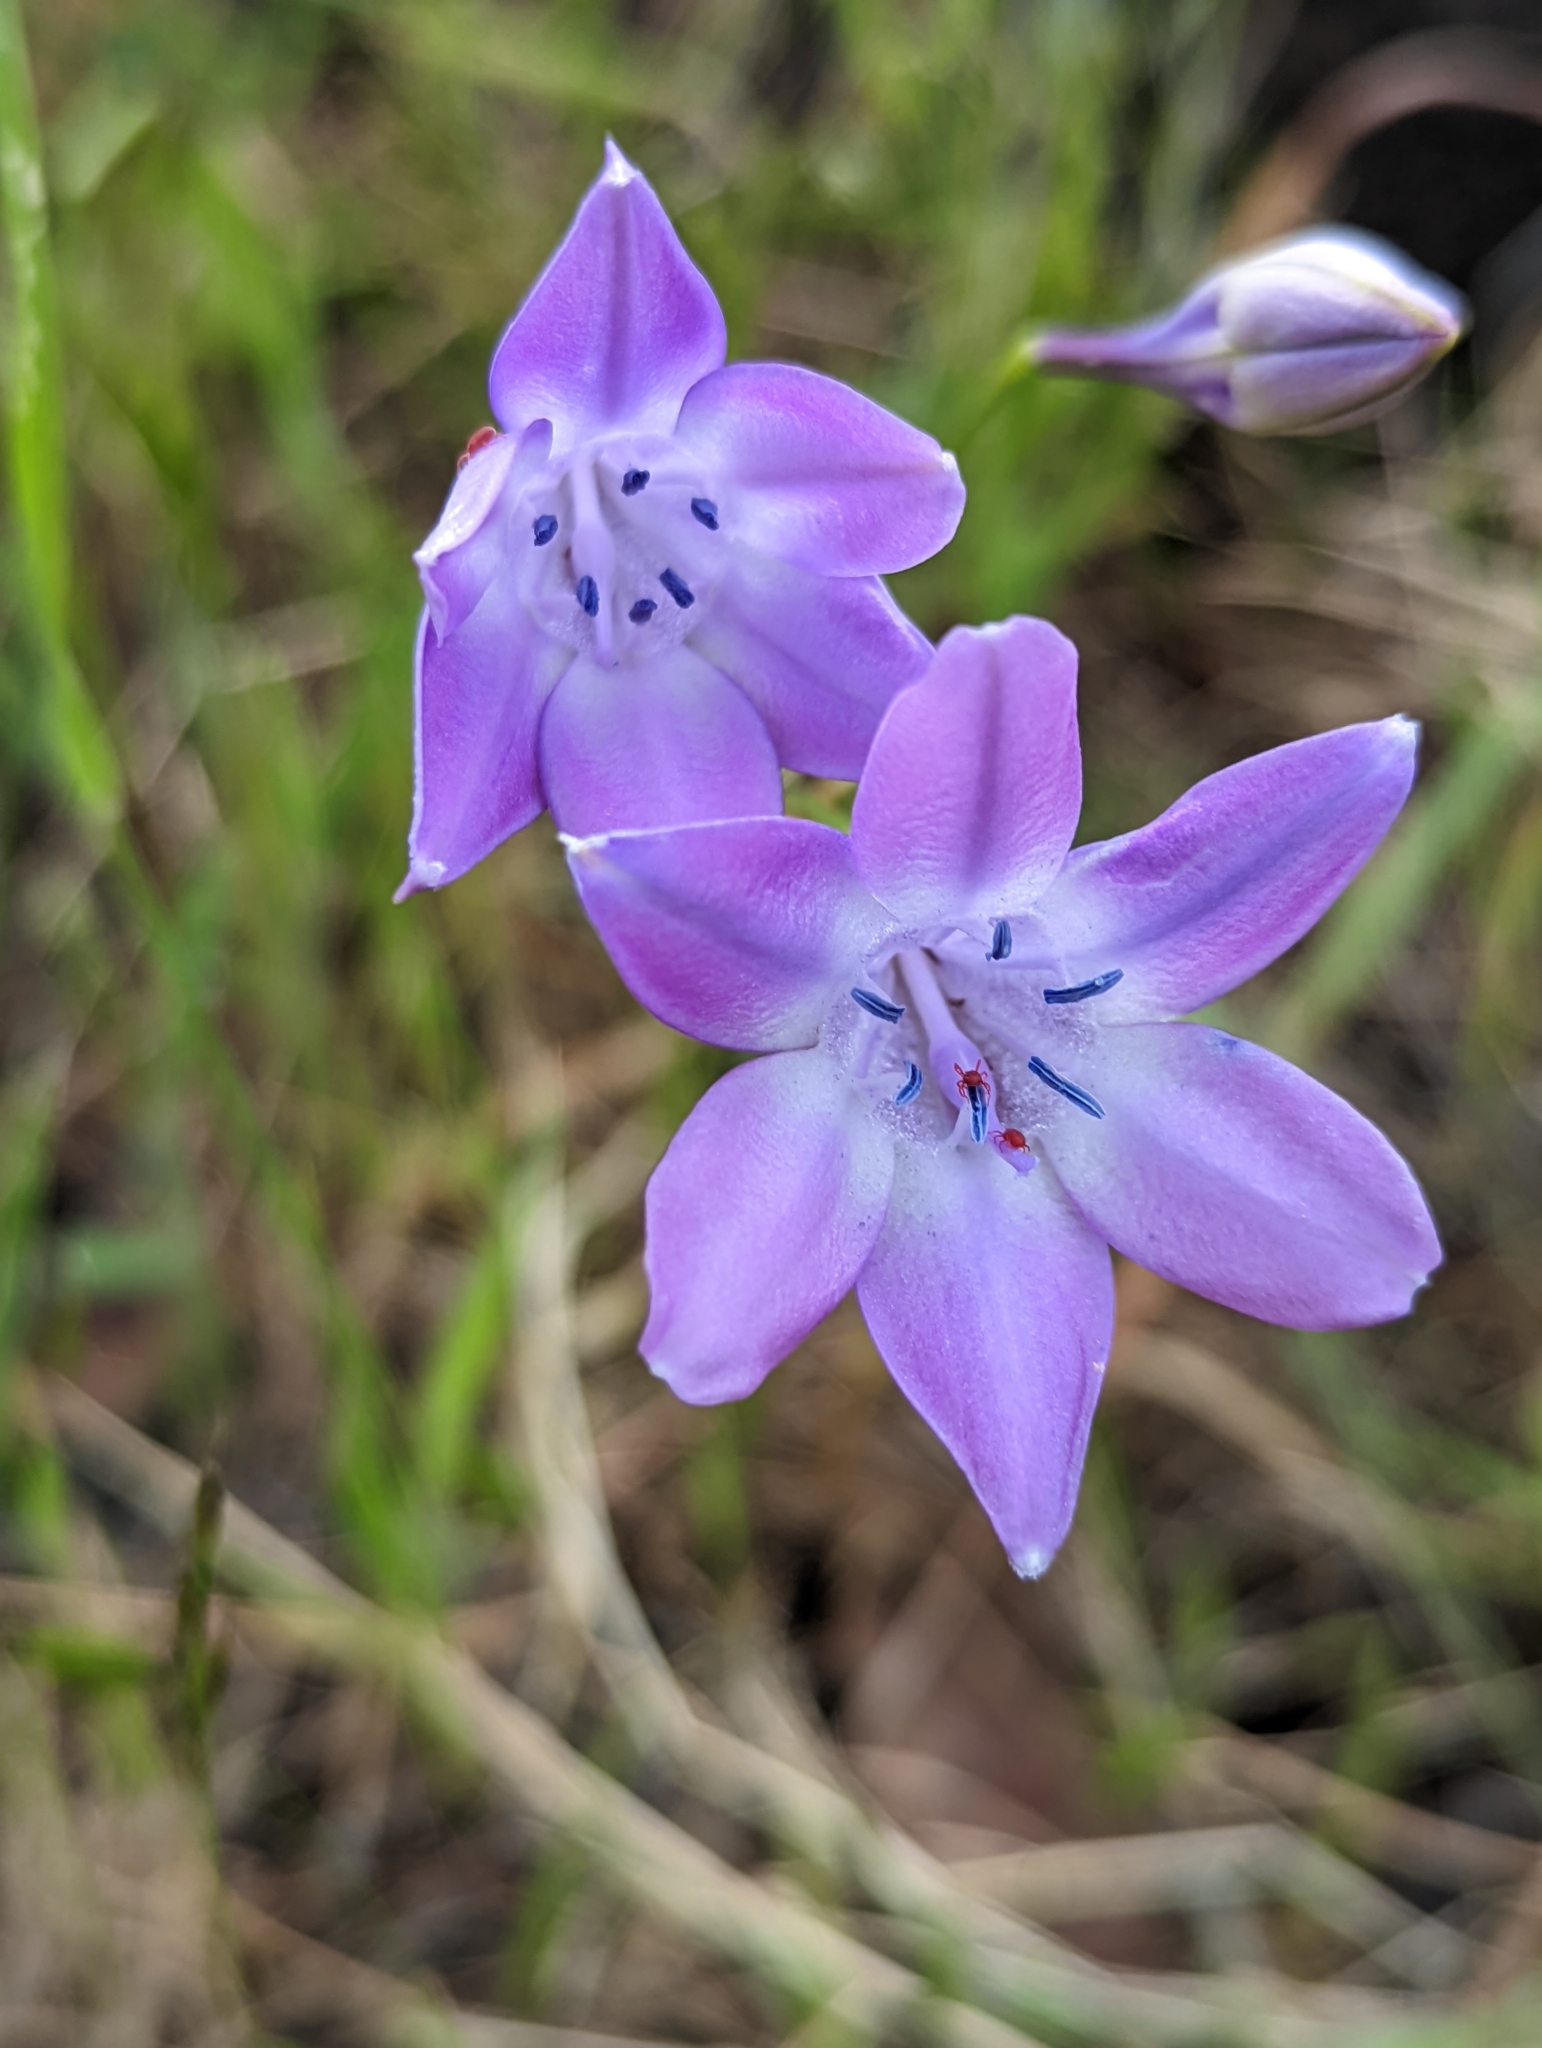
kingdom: Plantae
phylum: Tracheophyta
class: Liliopsida
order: Asparagales
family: Asparagaceae
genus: Triteleia
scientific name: Triteleia bridgesii
